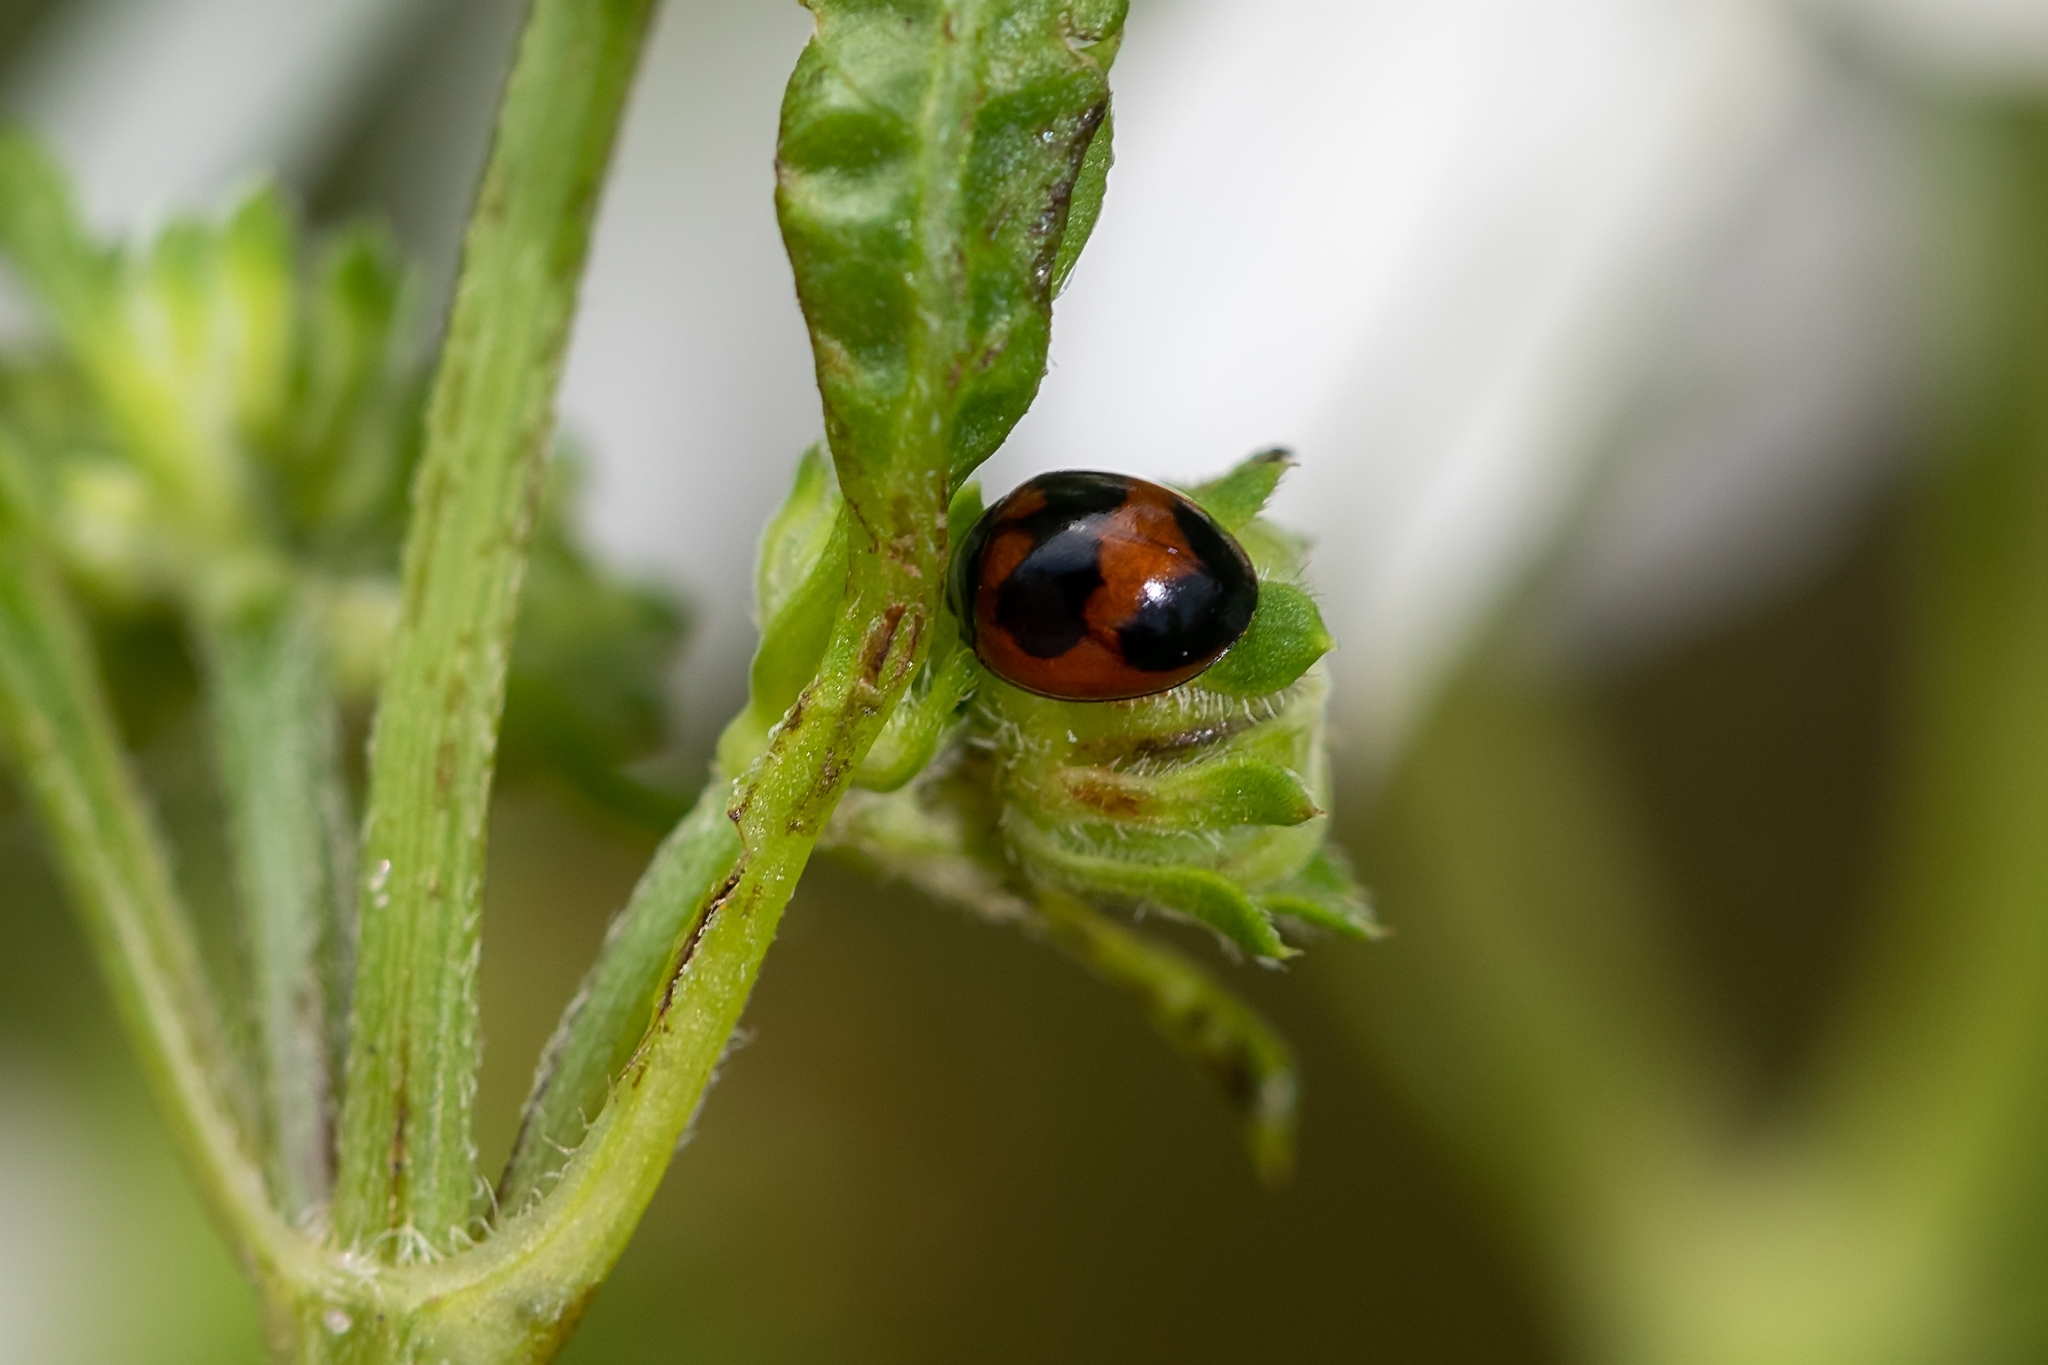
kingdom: Animalia
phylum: Arthropoda
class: Insecta
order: Coleoptera
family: Coccinellidae
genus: Exochomus
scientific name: Exochomus childreni
